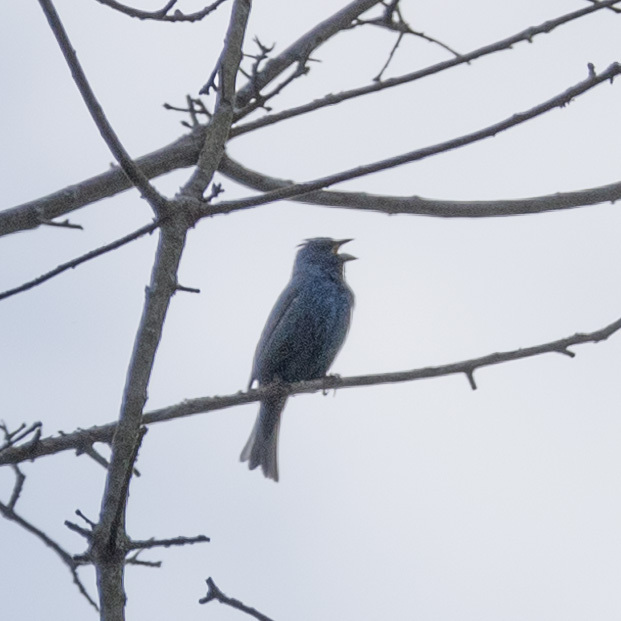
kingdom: Animalia
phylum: Chordata
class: Aves
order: Passeriformes
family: Cardinalidae
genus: Passerina
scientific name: Passerina cyanea
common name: Indigo bunting
